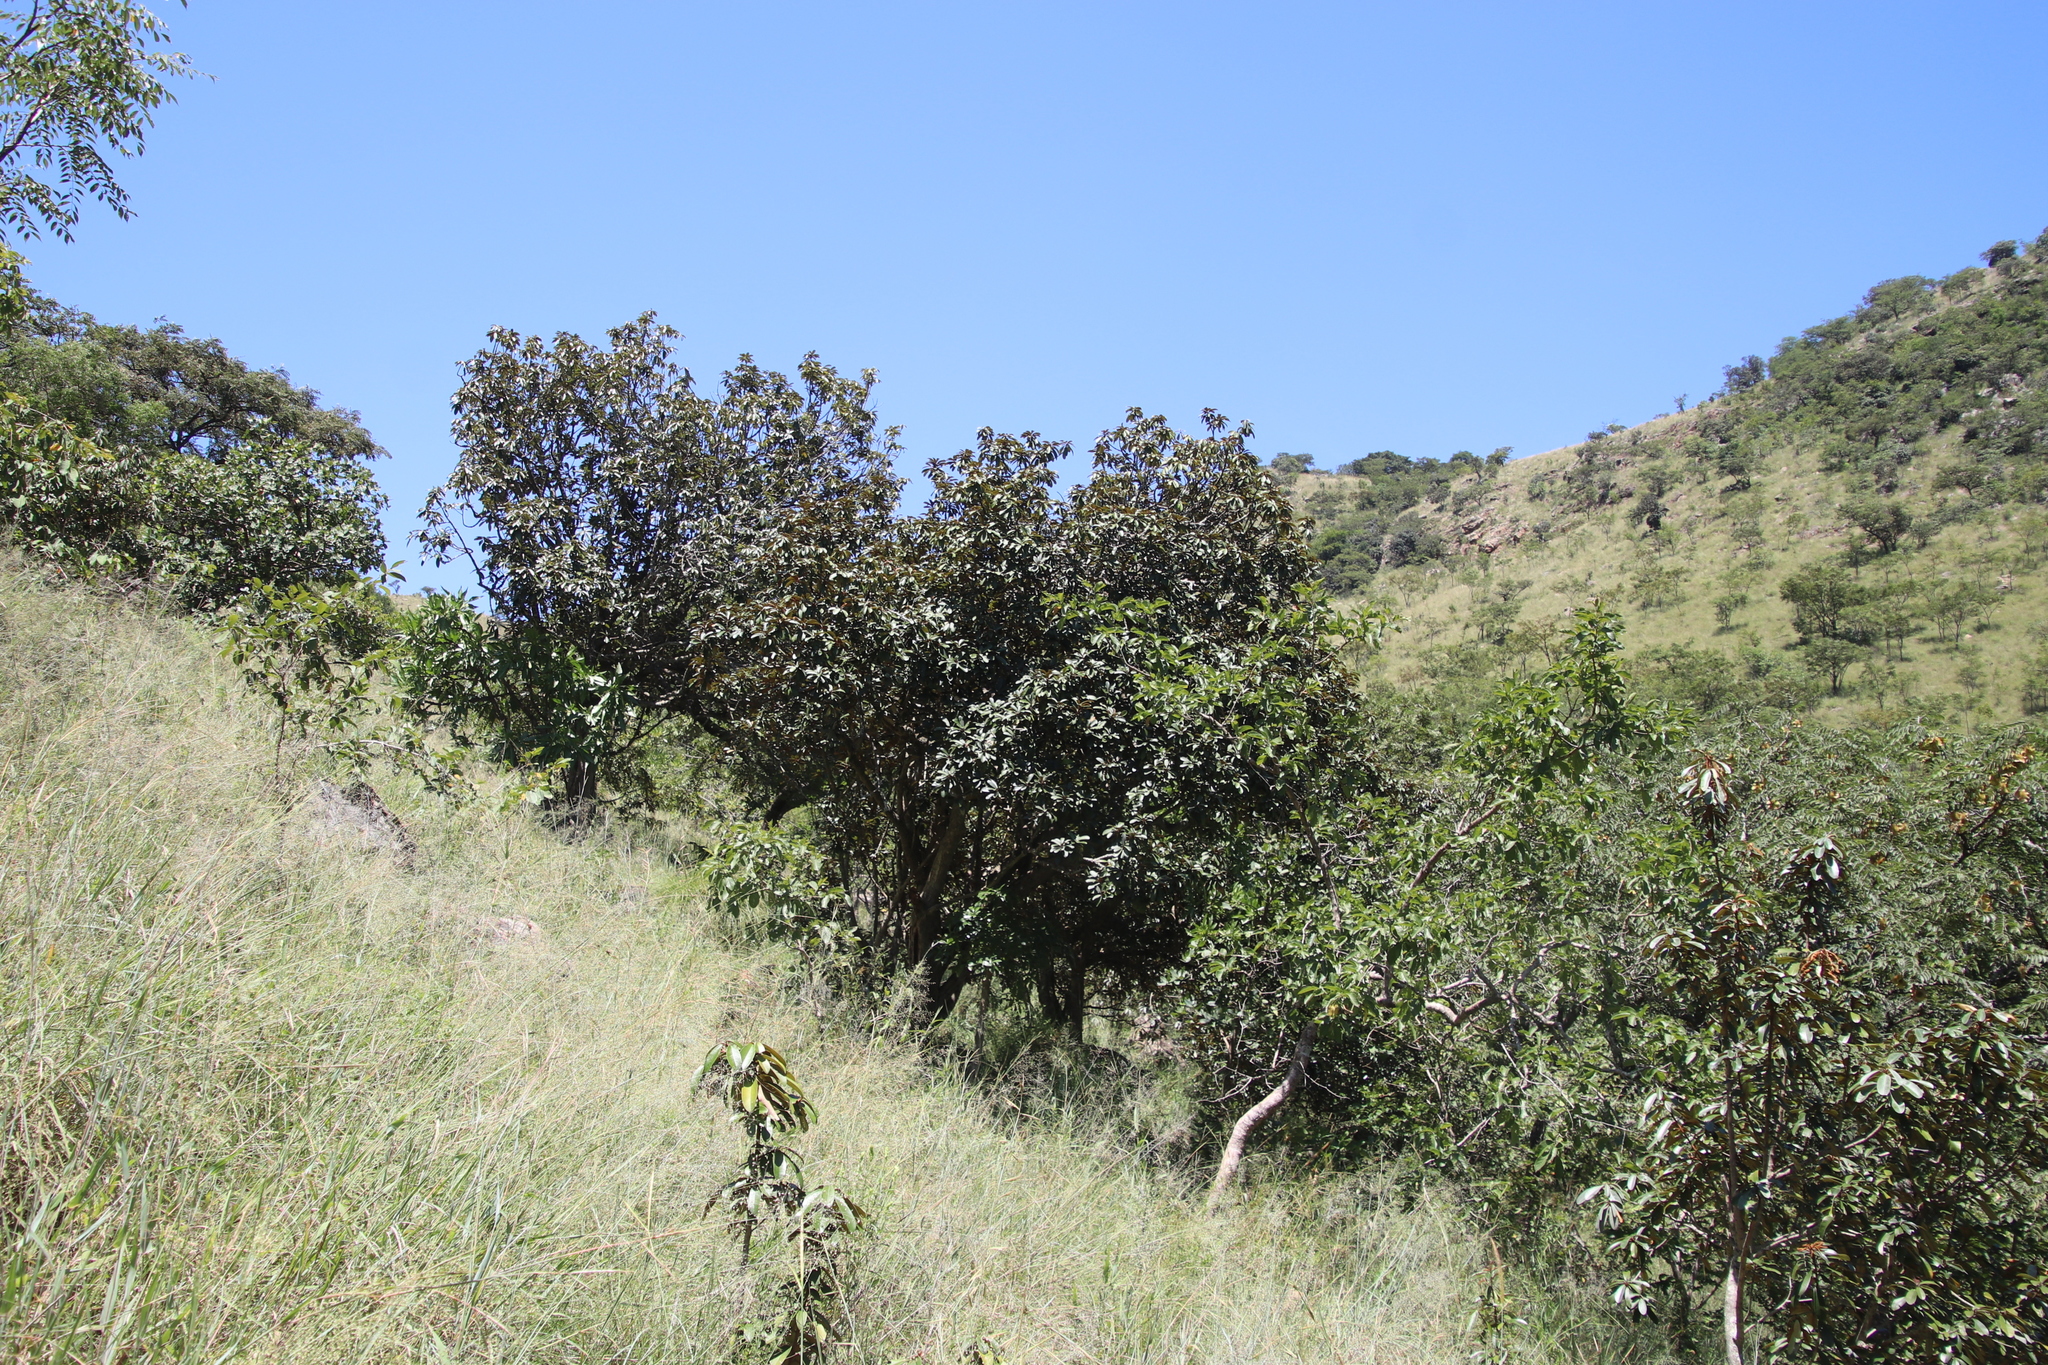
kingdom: Plantae
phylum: Tracheophyta
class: Magnoliopsida
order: Ericales
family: Sapotaceae
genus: Englerophytum
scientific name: Englerophytum magalismontanum
